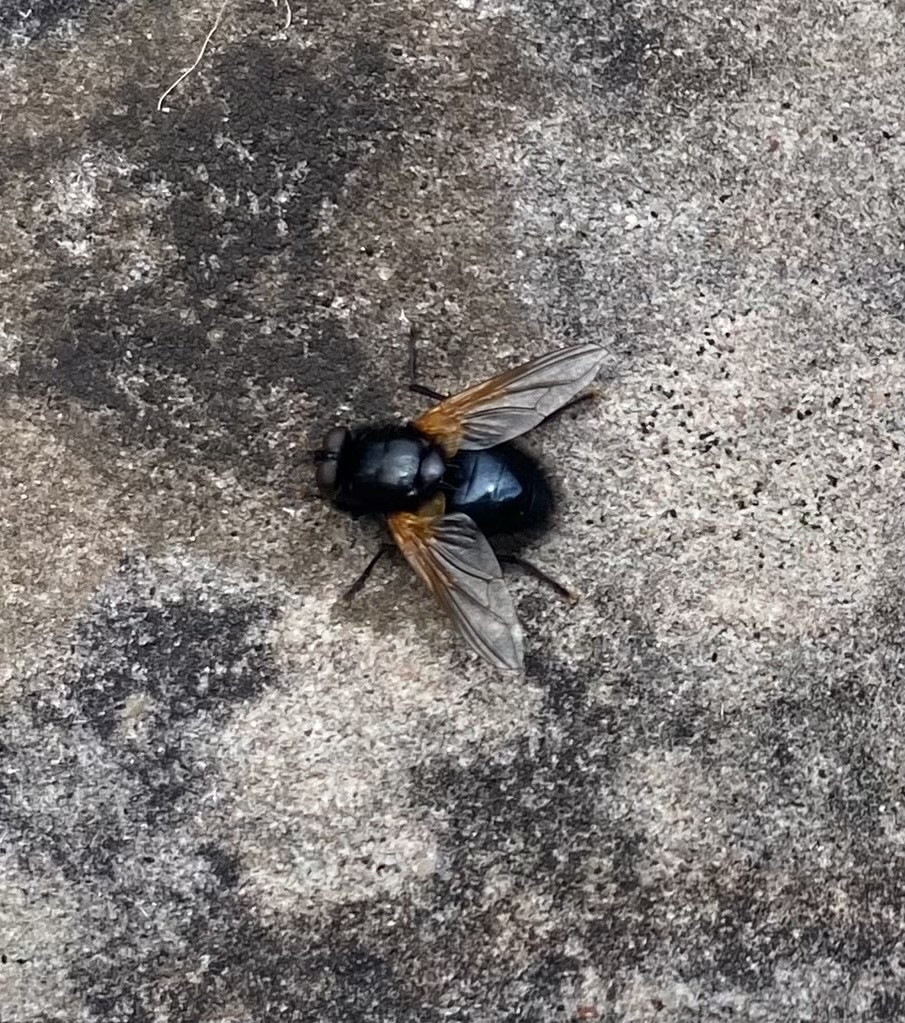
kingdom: Animalia
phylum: Arthropoda
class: Insecta
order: Diptera
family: Muscidae
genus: Mesembrina
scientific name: Mesembrina meridiana
